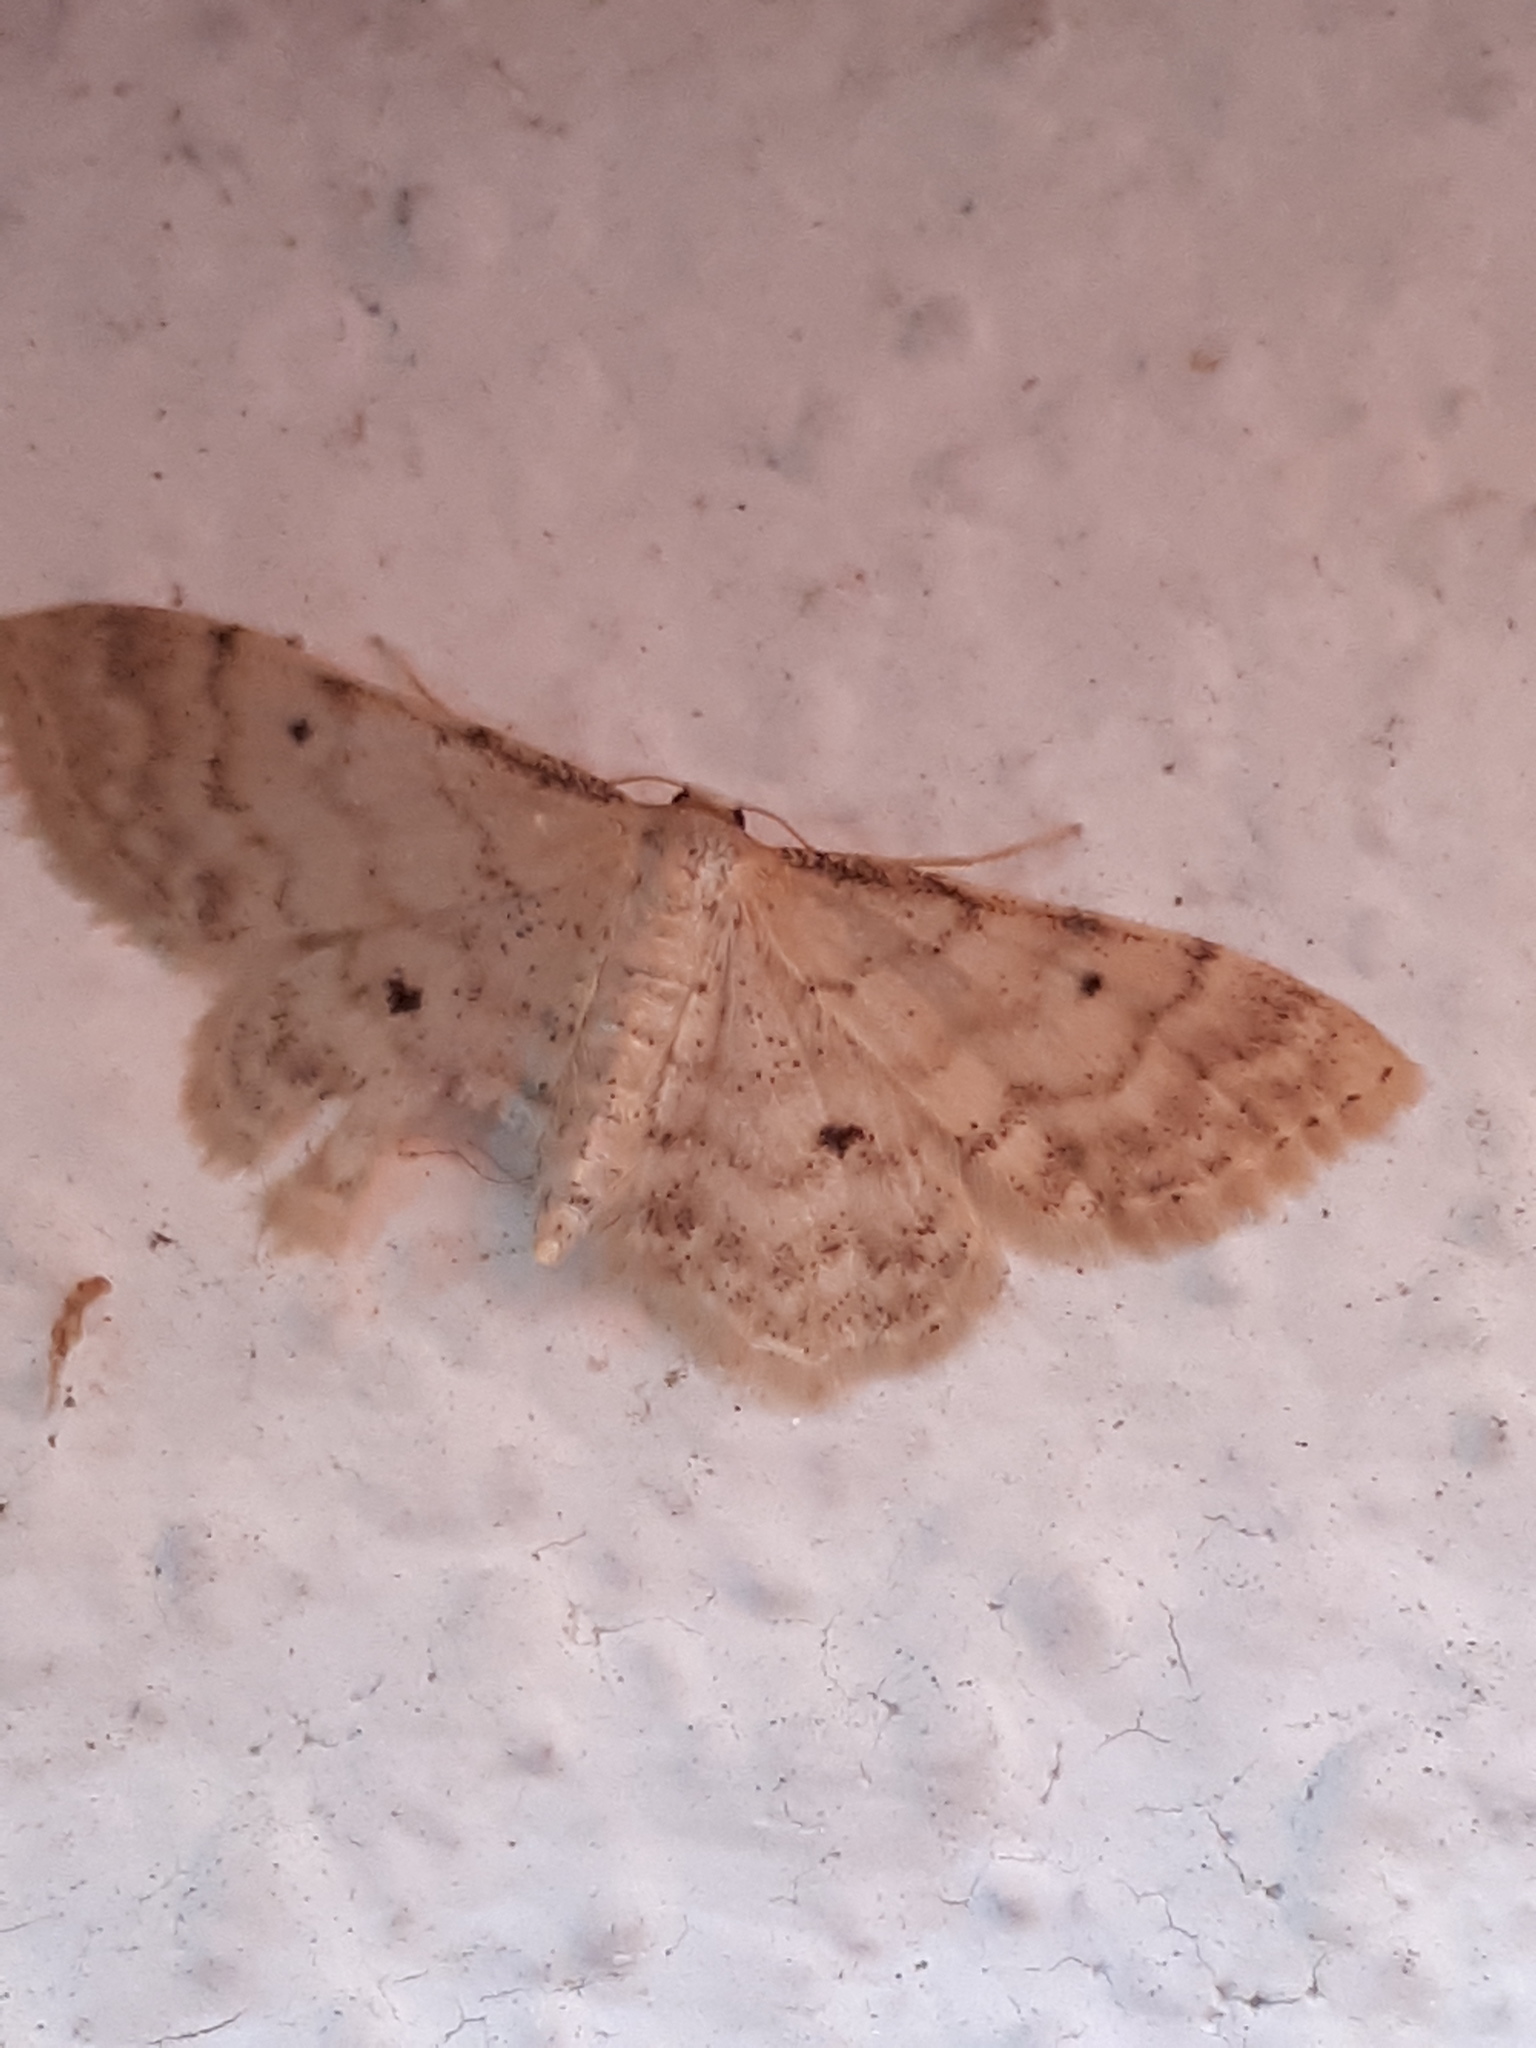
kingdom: Animalia
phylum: Arthropoda
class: Insecta
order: Lepidoptera
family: Geometridae
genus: Idaea
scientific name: Idaea fuscovenosa
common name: Dwarf cream wave
